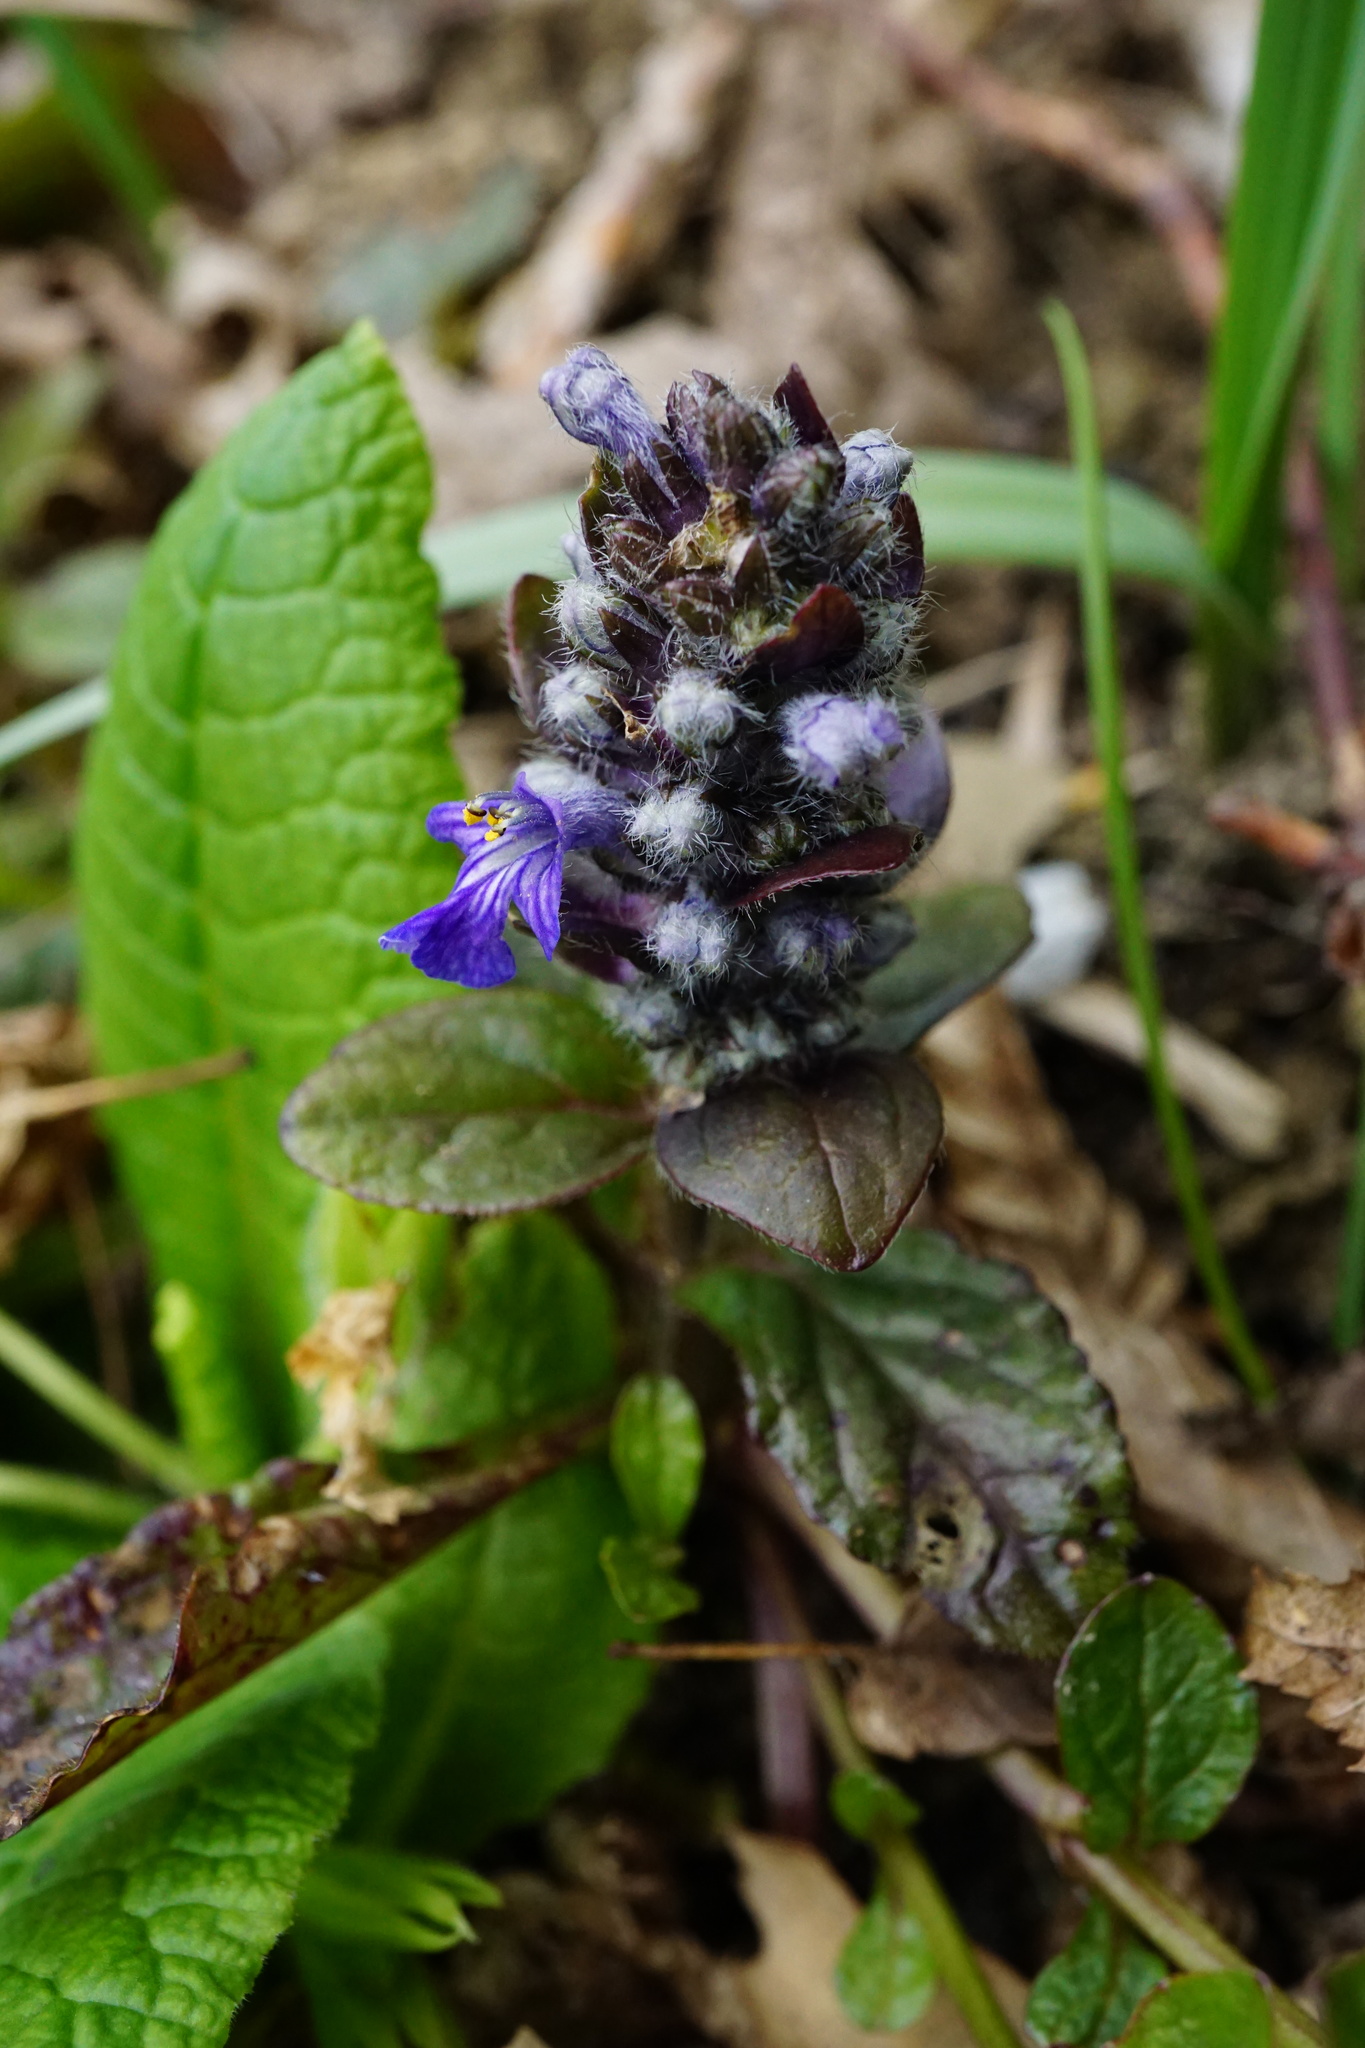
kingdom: Plantae
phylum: Tracheophyta
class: Magnoliopsida
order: Lamiales
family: Lamiaceae
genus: Ajuga
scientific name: Ajuga reptans
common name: Bugle
